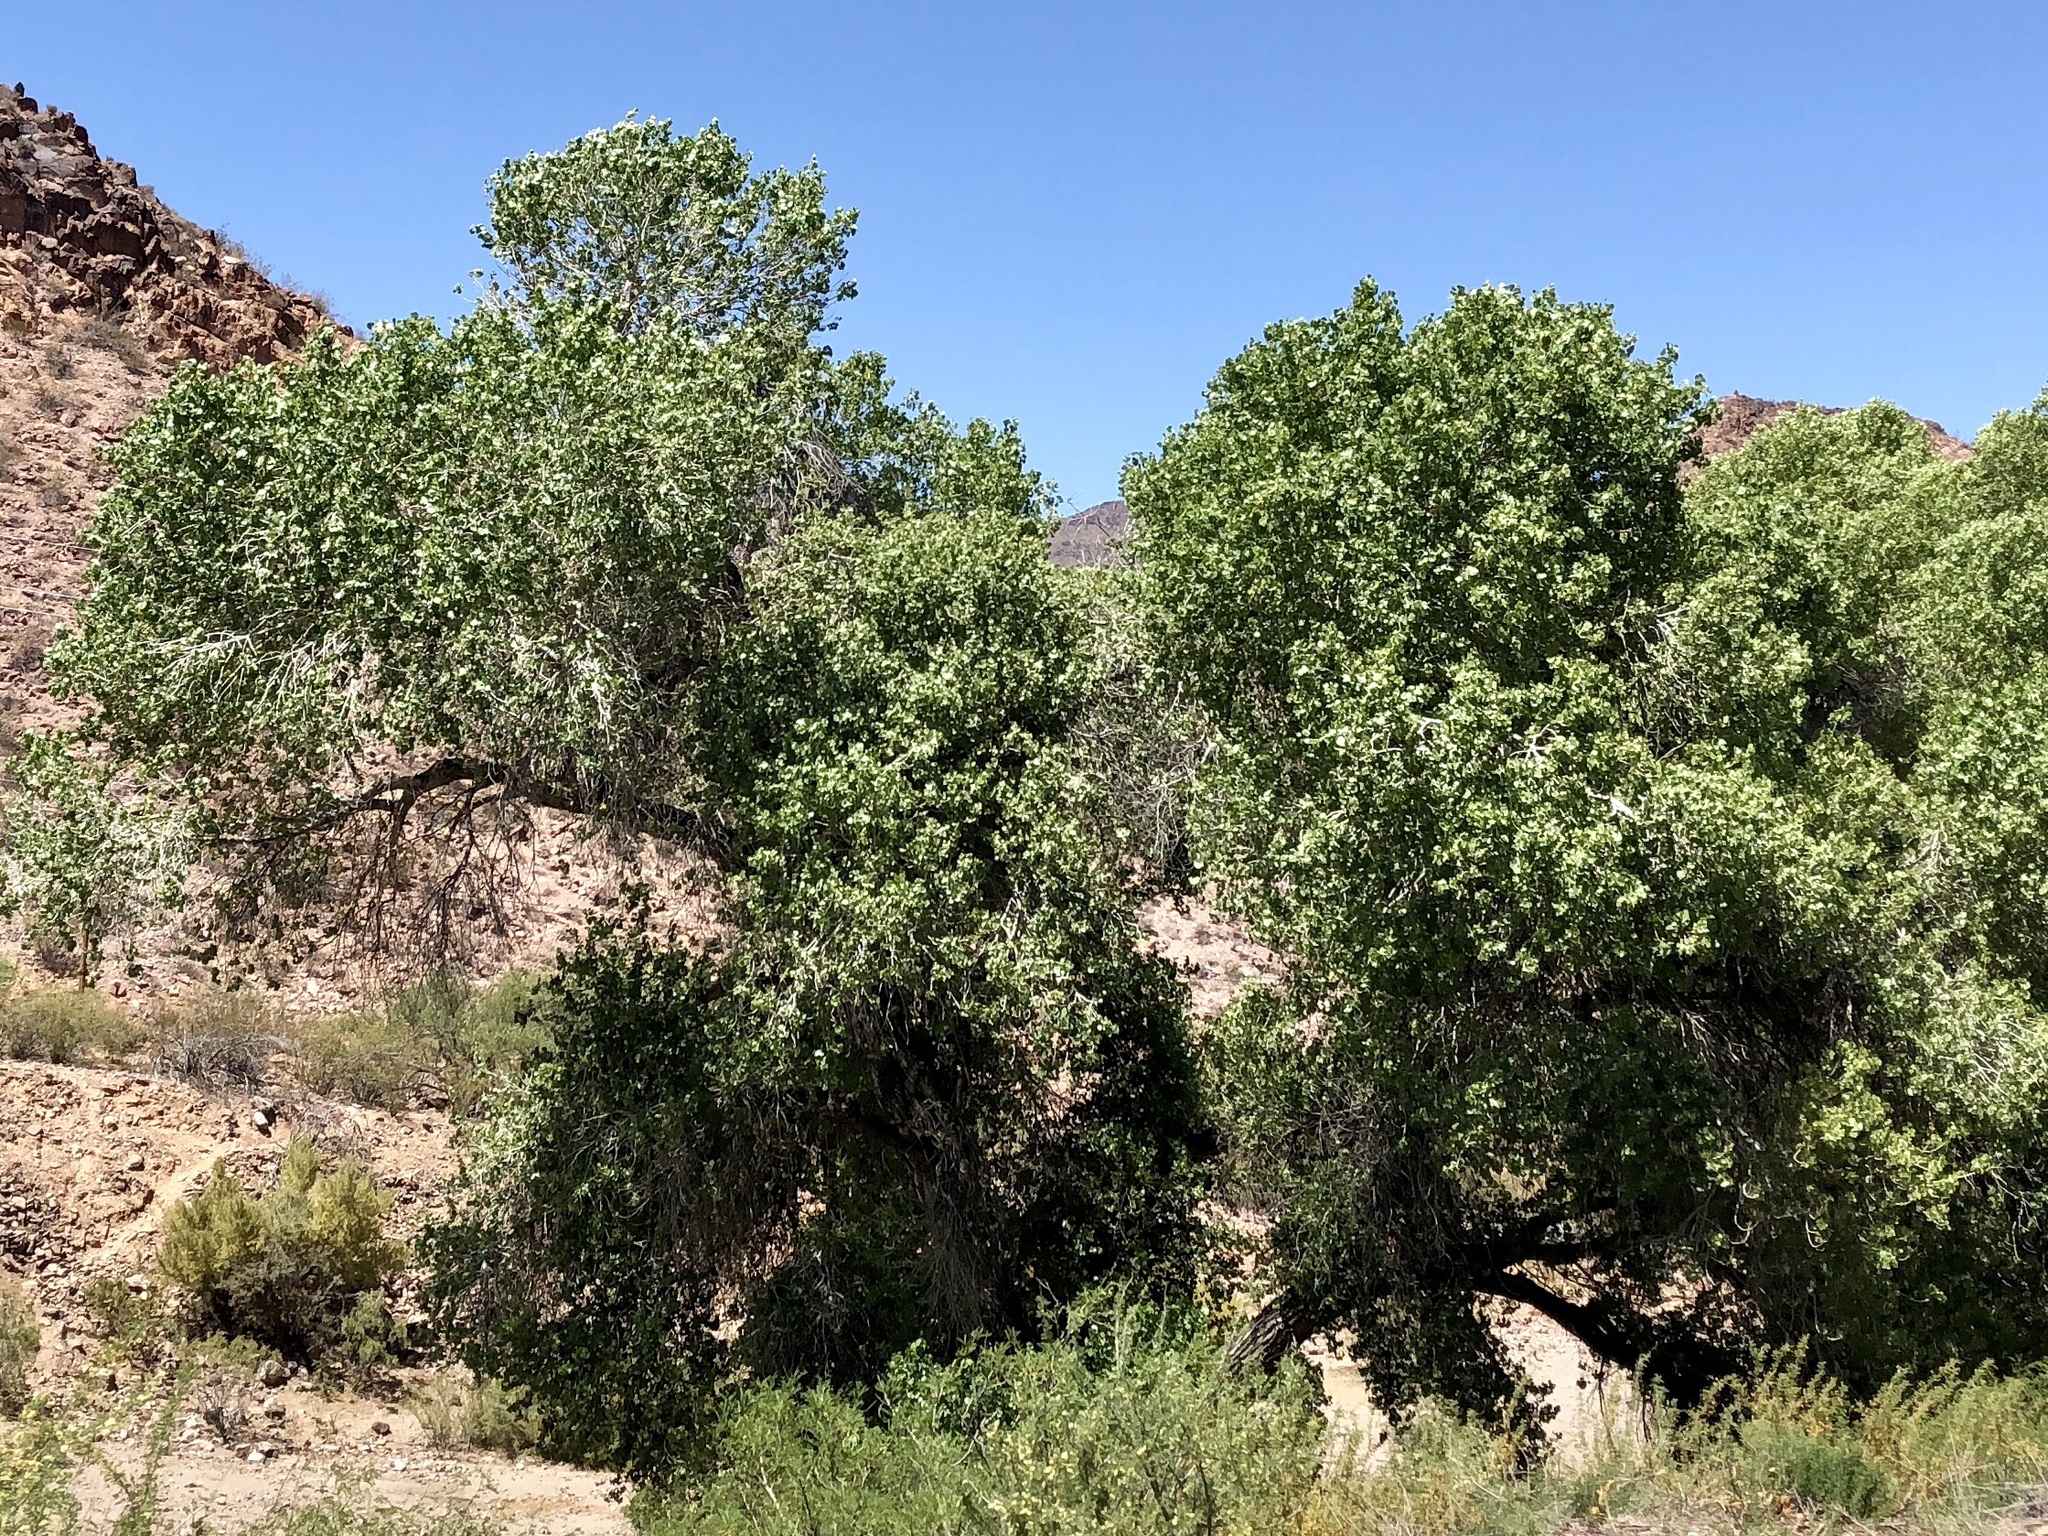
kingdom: Plantae
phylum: Tracheophyta
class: Magnoliopsida
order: Malpighiales
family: Salicaceae
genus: Populus
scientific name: Populus fremontii
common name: Fremont's cottonwood
